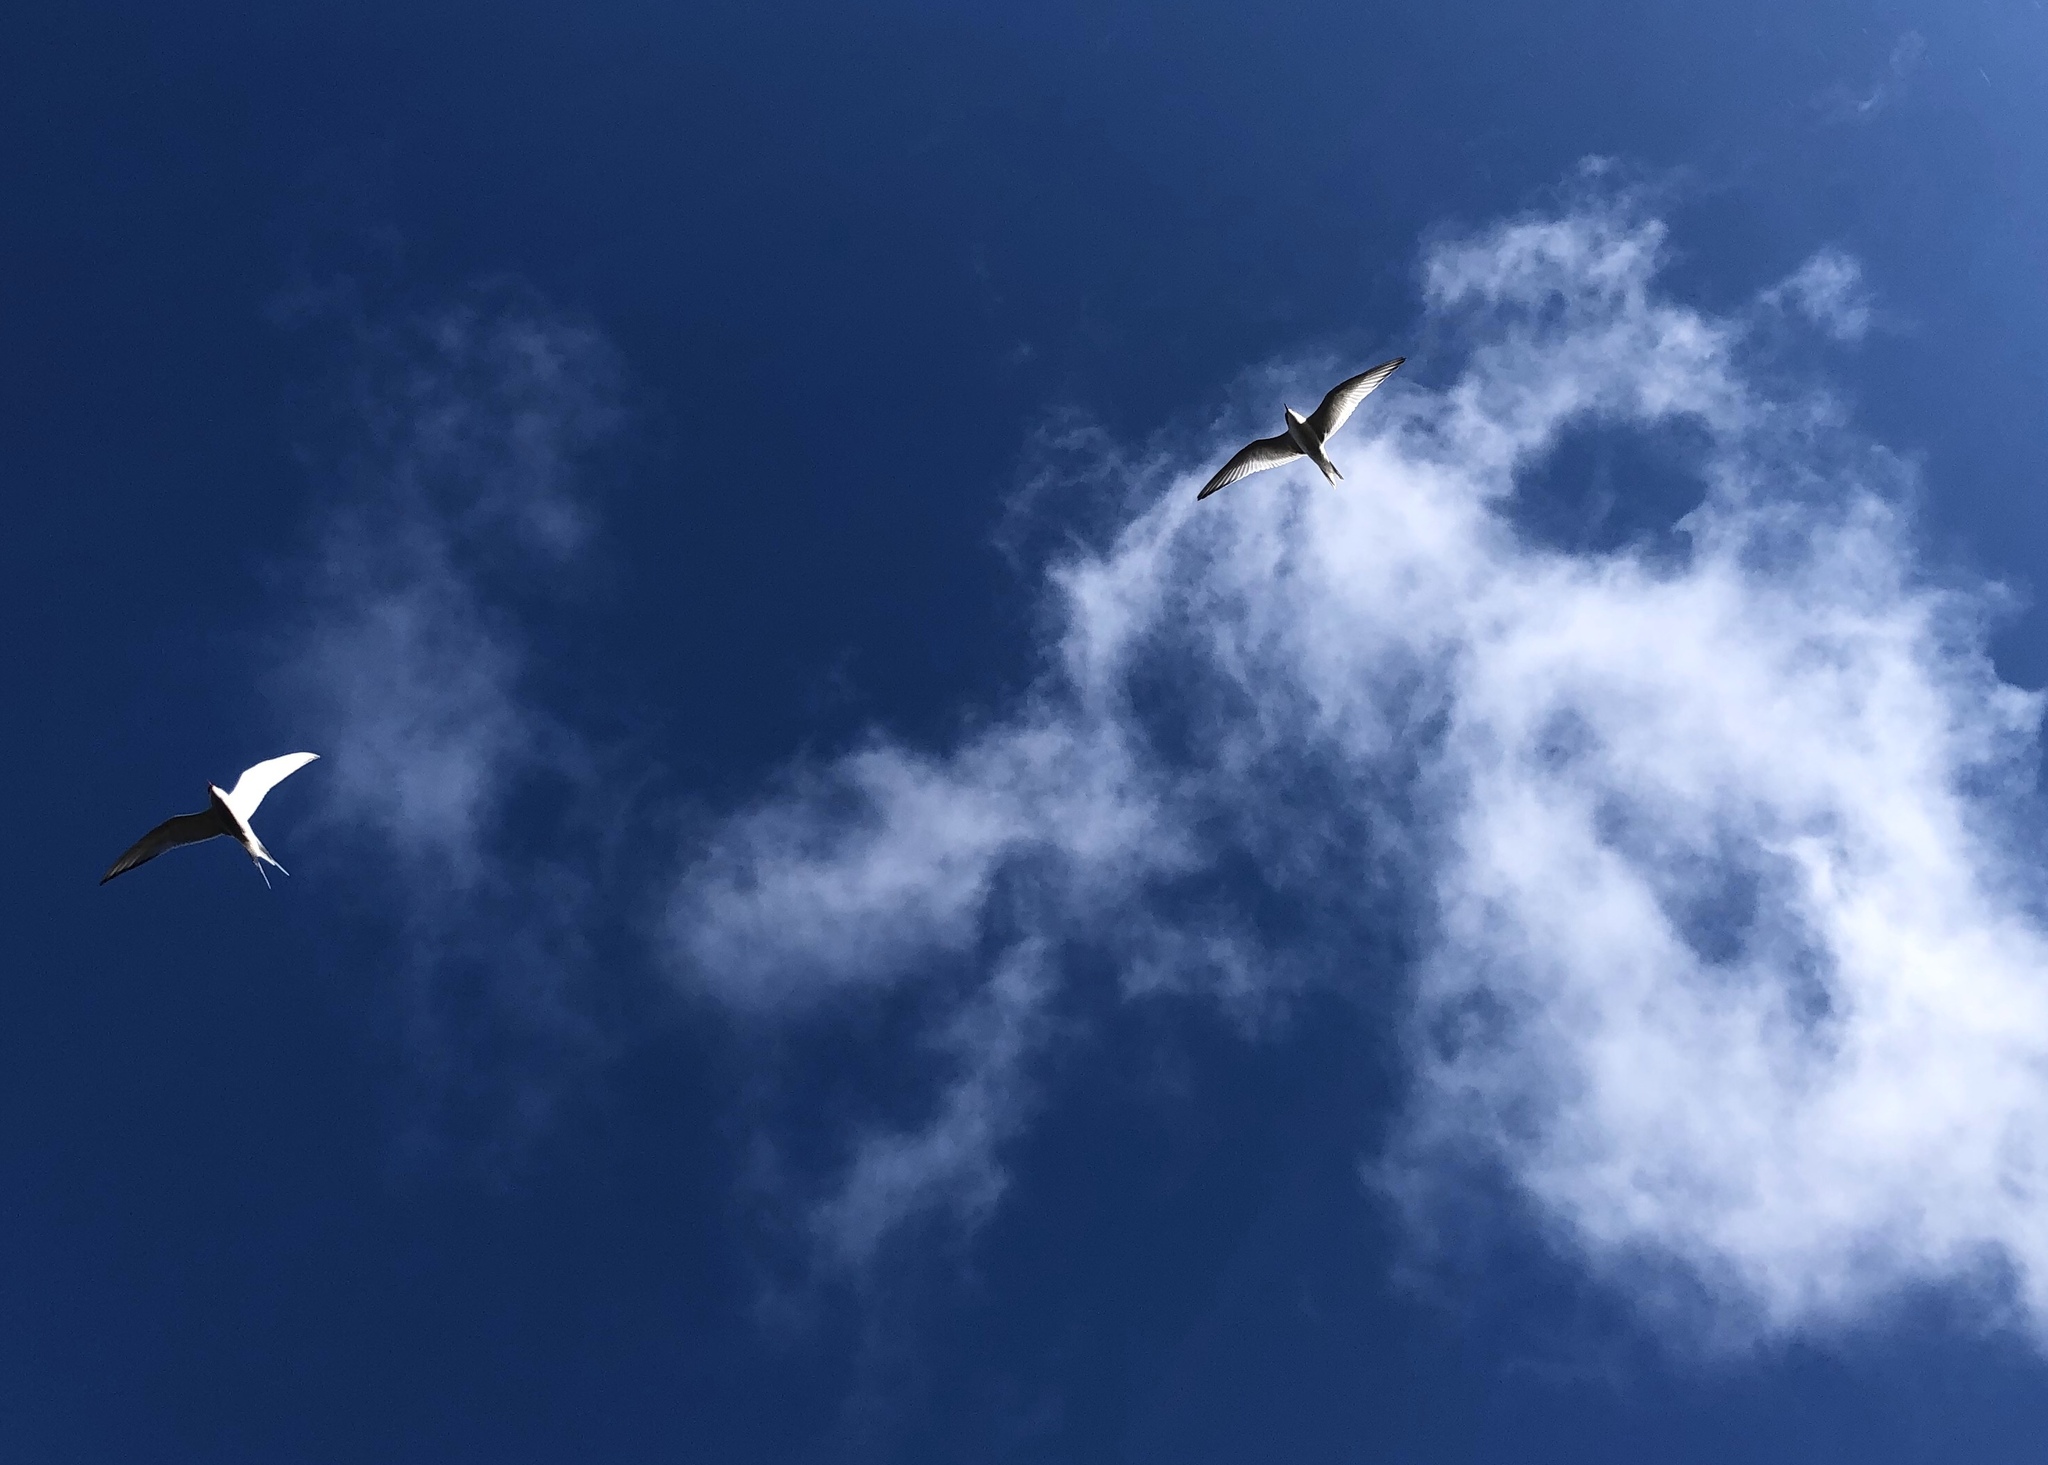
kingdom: Animalia
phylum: Chordata
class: Aves
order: Charadriiformes
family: Laridae
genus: Sterna
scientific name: Sterna paradisaea
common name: Arctic tern
